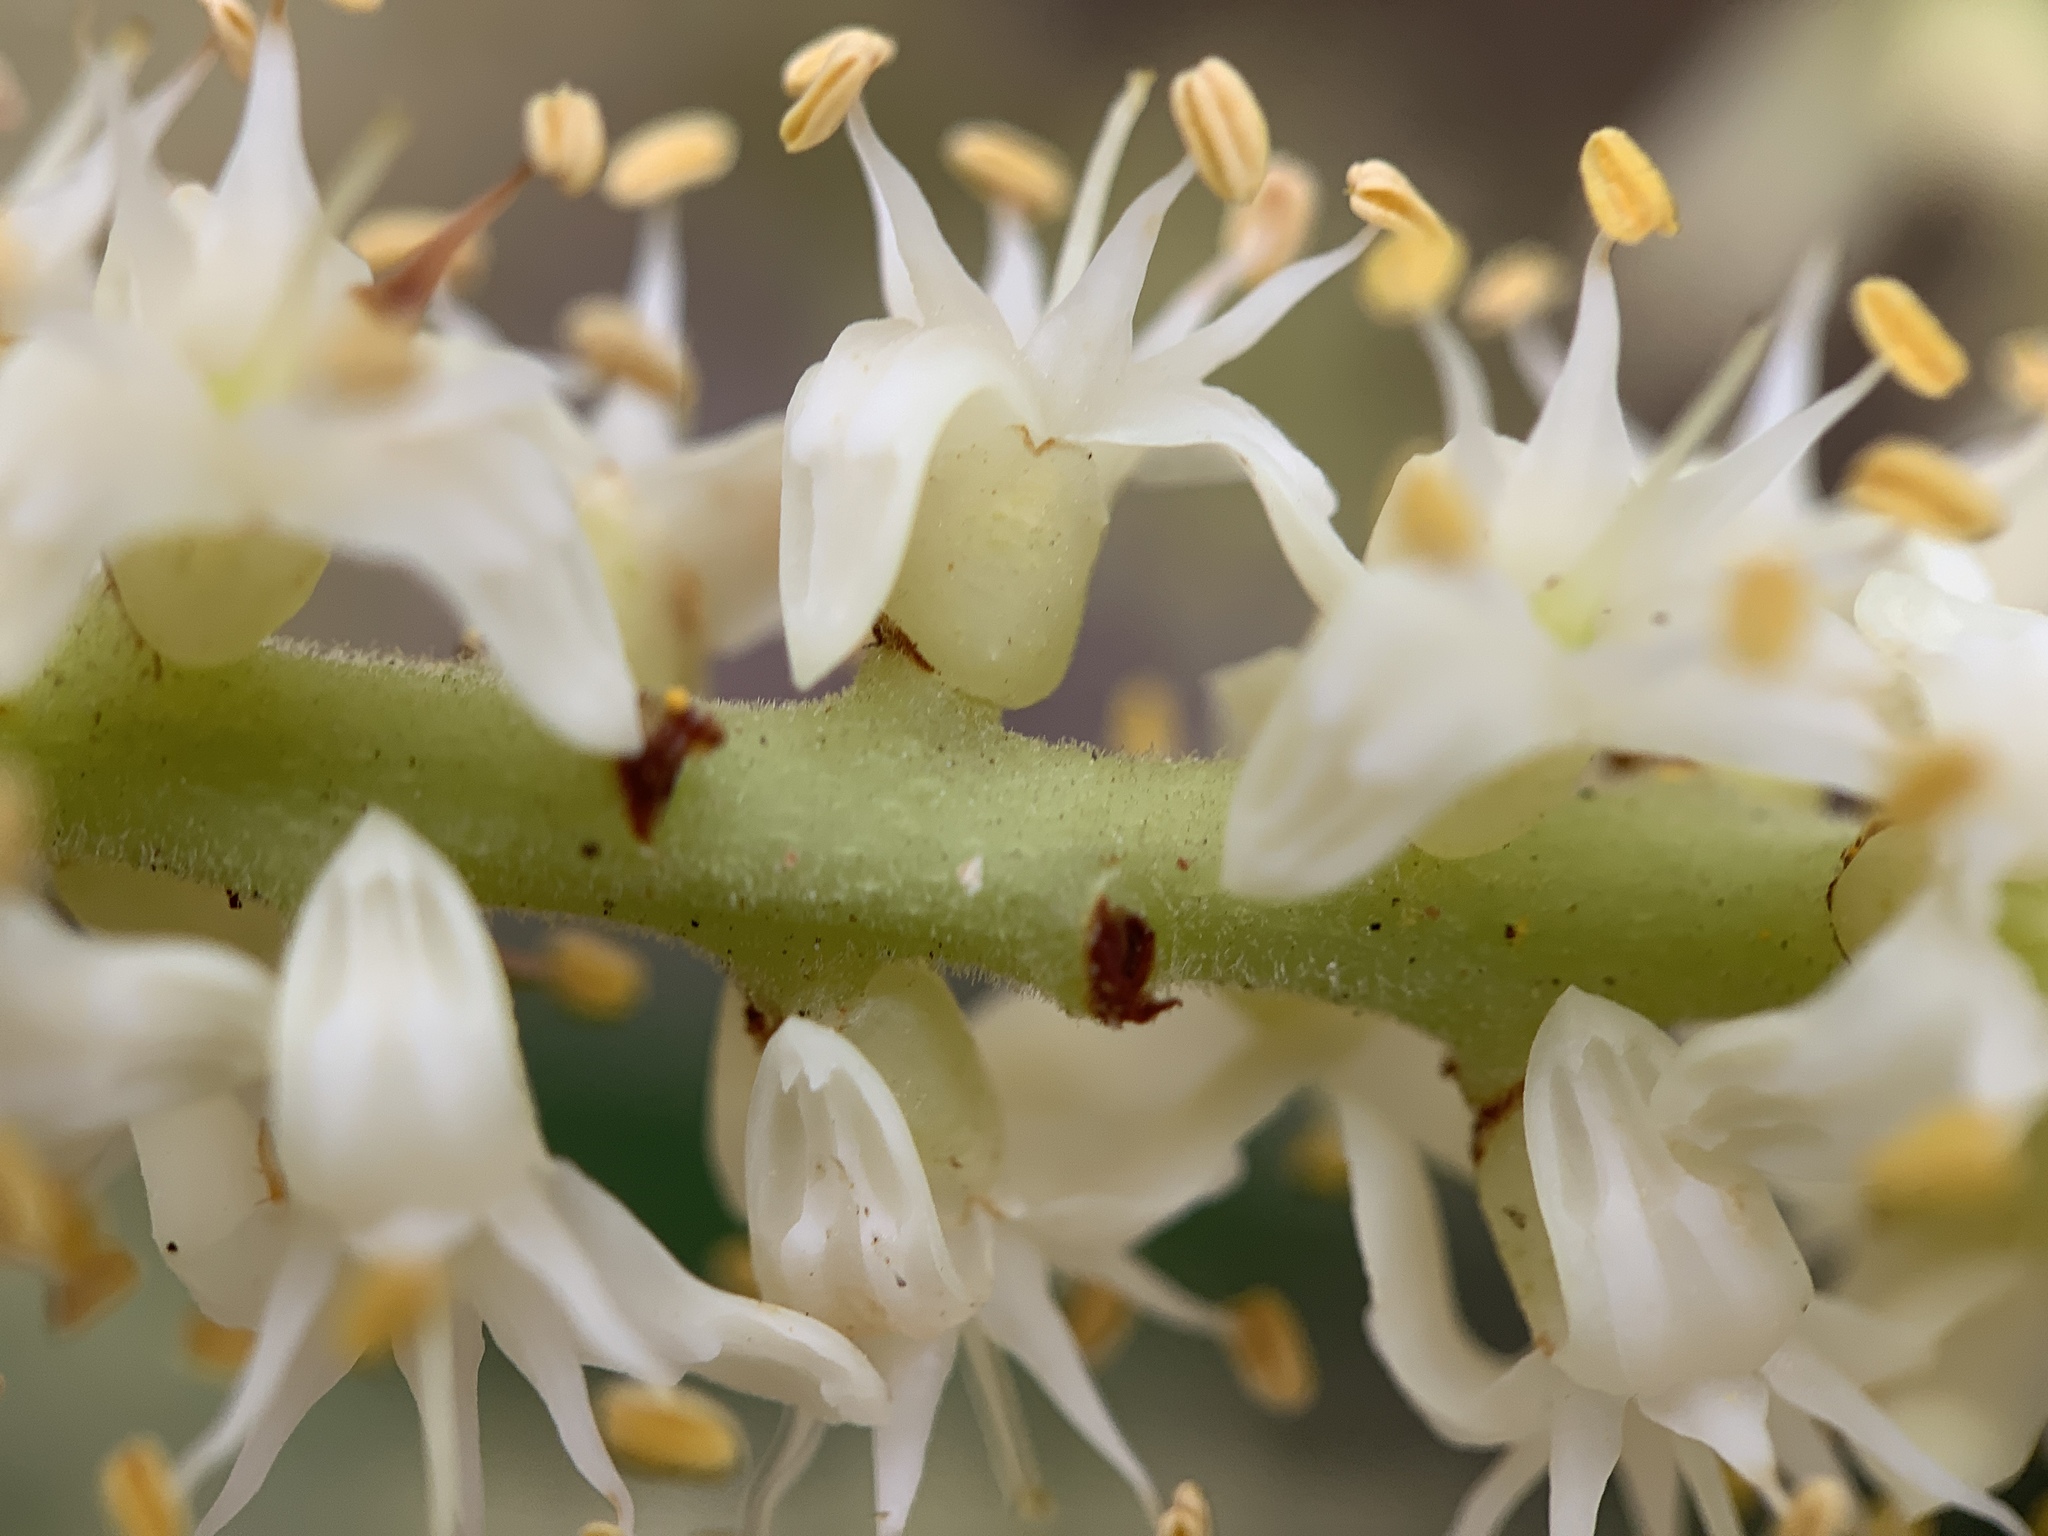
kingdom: Plantae
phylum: Tracheophyta
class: Liliopsida
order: Arecales
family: Arecaceae
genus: Serenoa
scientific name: Serenoa repens
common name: Saw-palmetto
